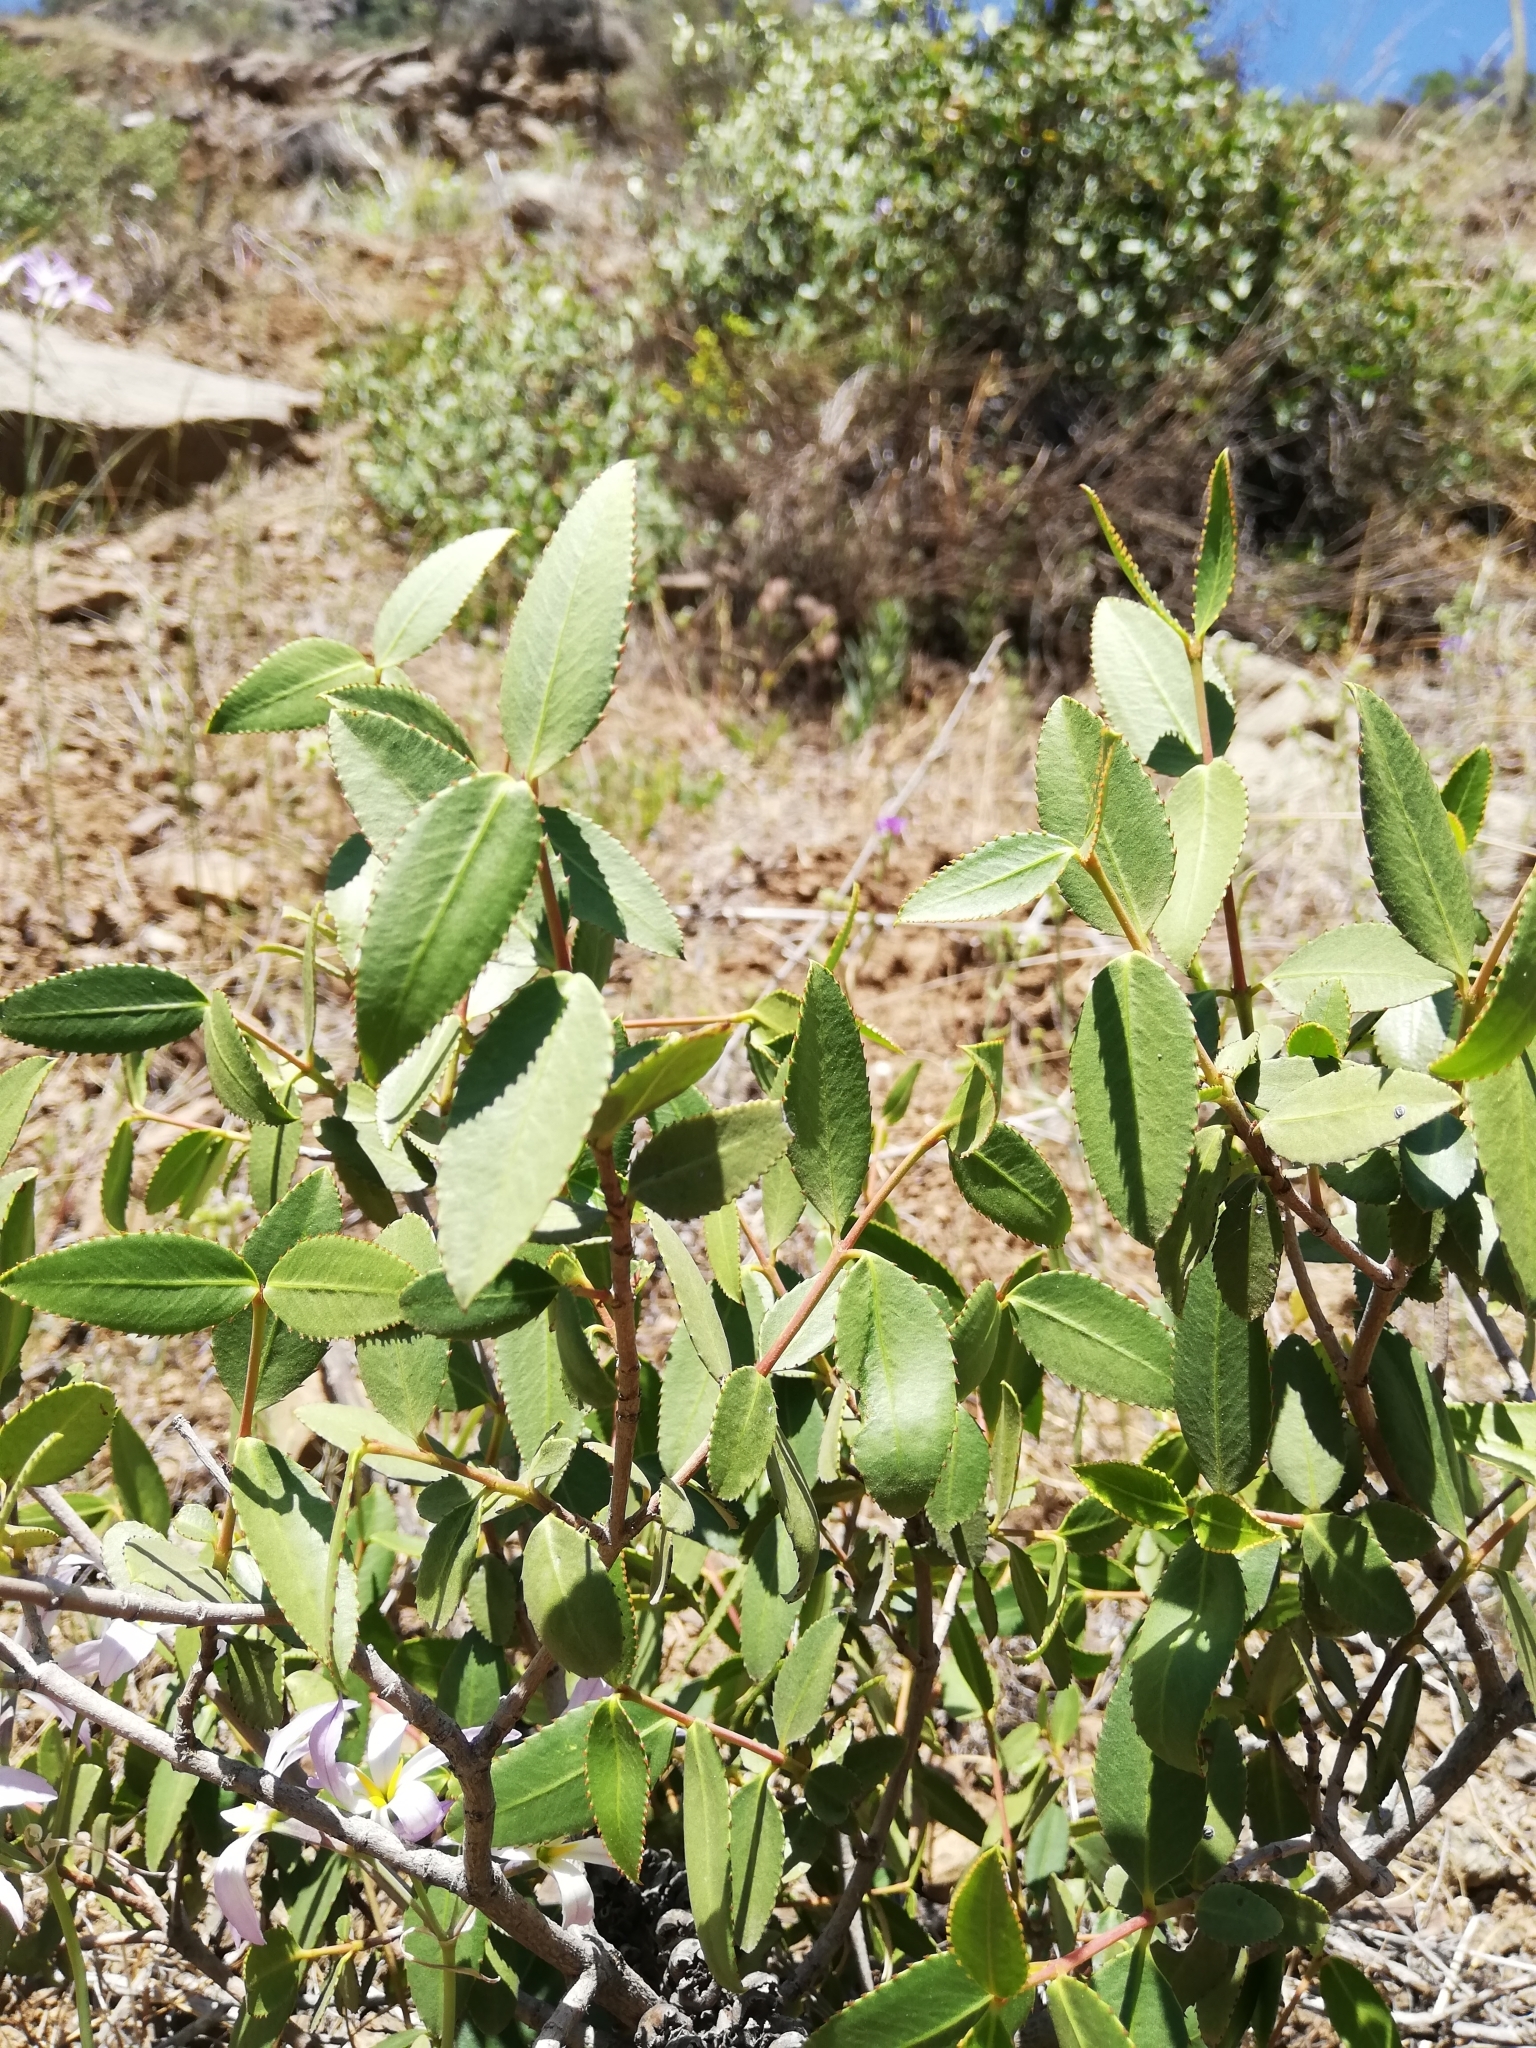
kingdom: Plantae
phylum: Tracheophyta
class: Magnoliopsida
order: Malpighiales
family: Euphorbiaceae
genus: Colliguaja
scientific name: Colliguaja odorifera
